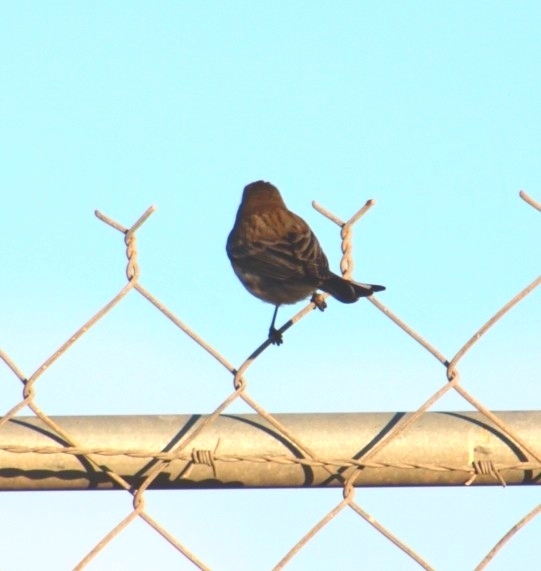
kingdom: Animalia
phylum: Chordata
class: Aves
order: Passeriformes
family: Parulidae
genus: Setophaga
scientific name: Setophaga coronata
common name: Myrtle warbler
